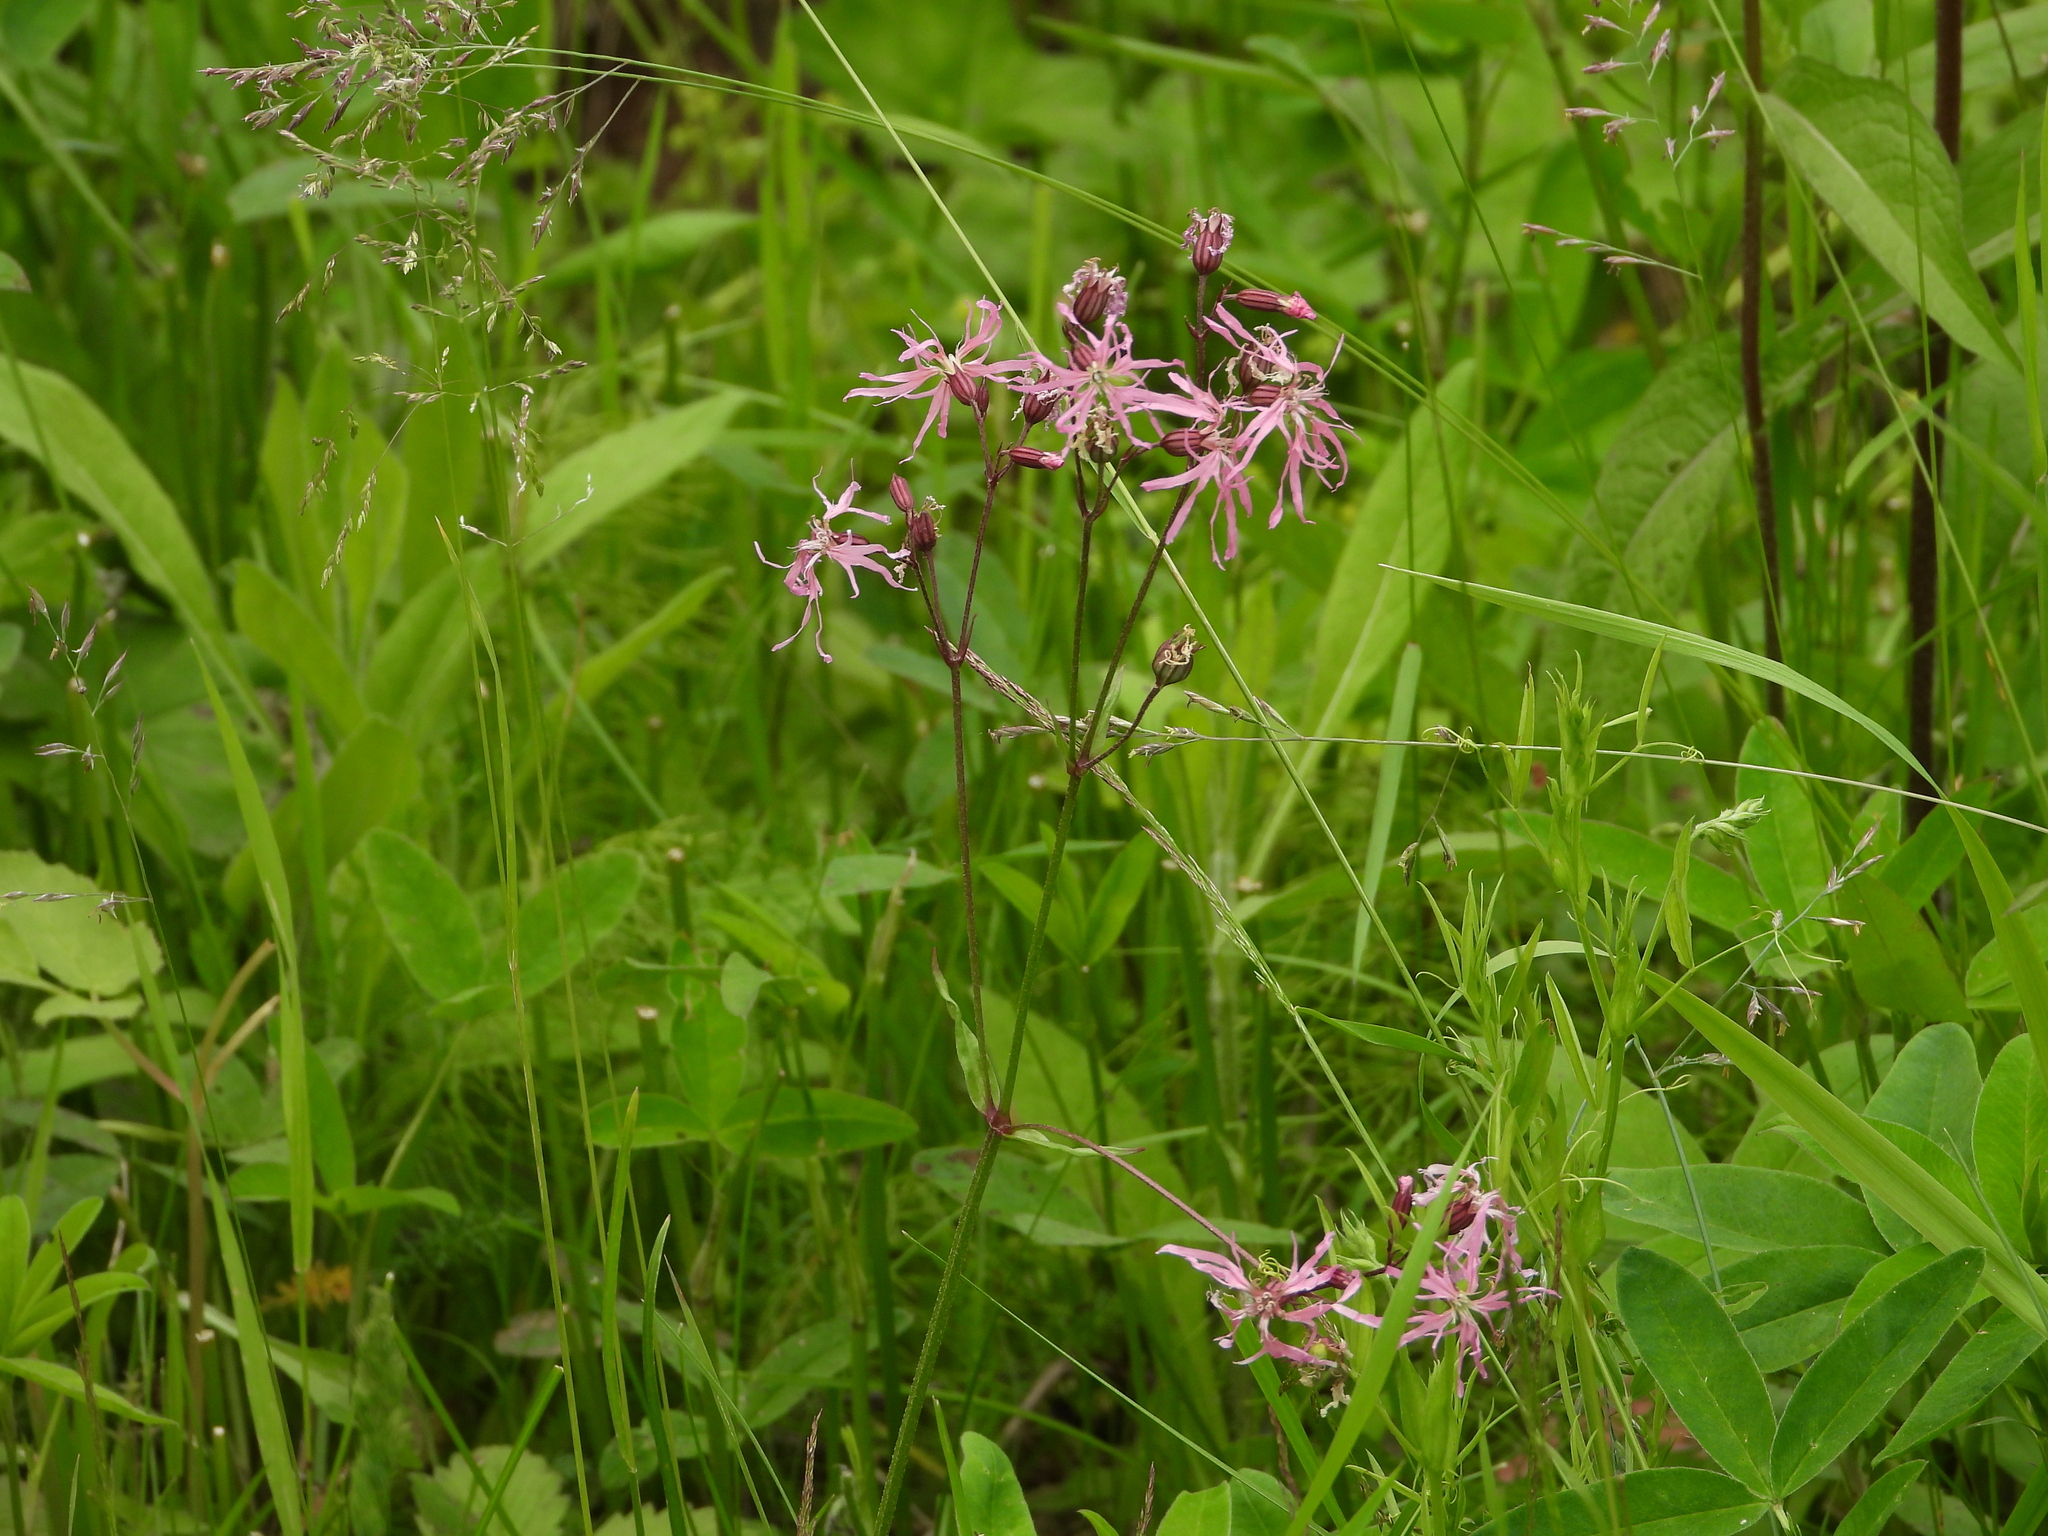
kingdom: Plantae
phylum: Tracheophyta
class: Magnoliopsida
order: Caryophyllales
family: Caryophyllaceae
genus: Silene
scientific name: Silene flos-cuculi
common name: Ragged-robin
